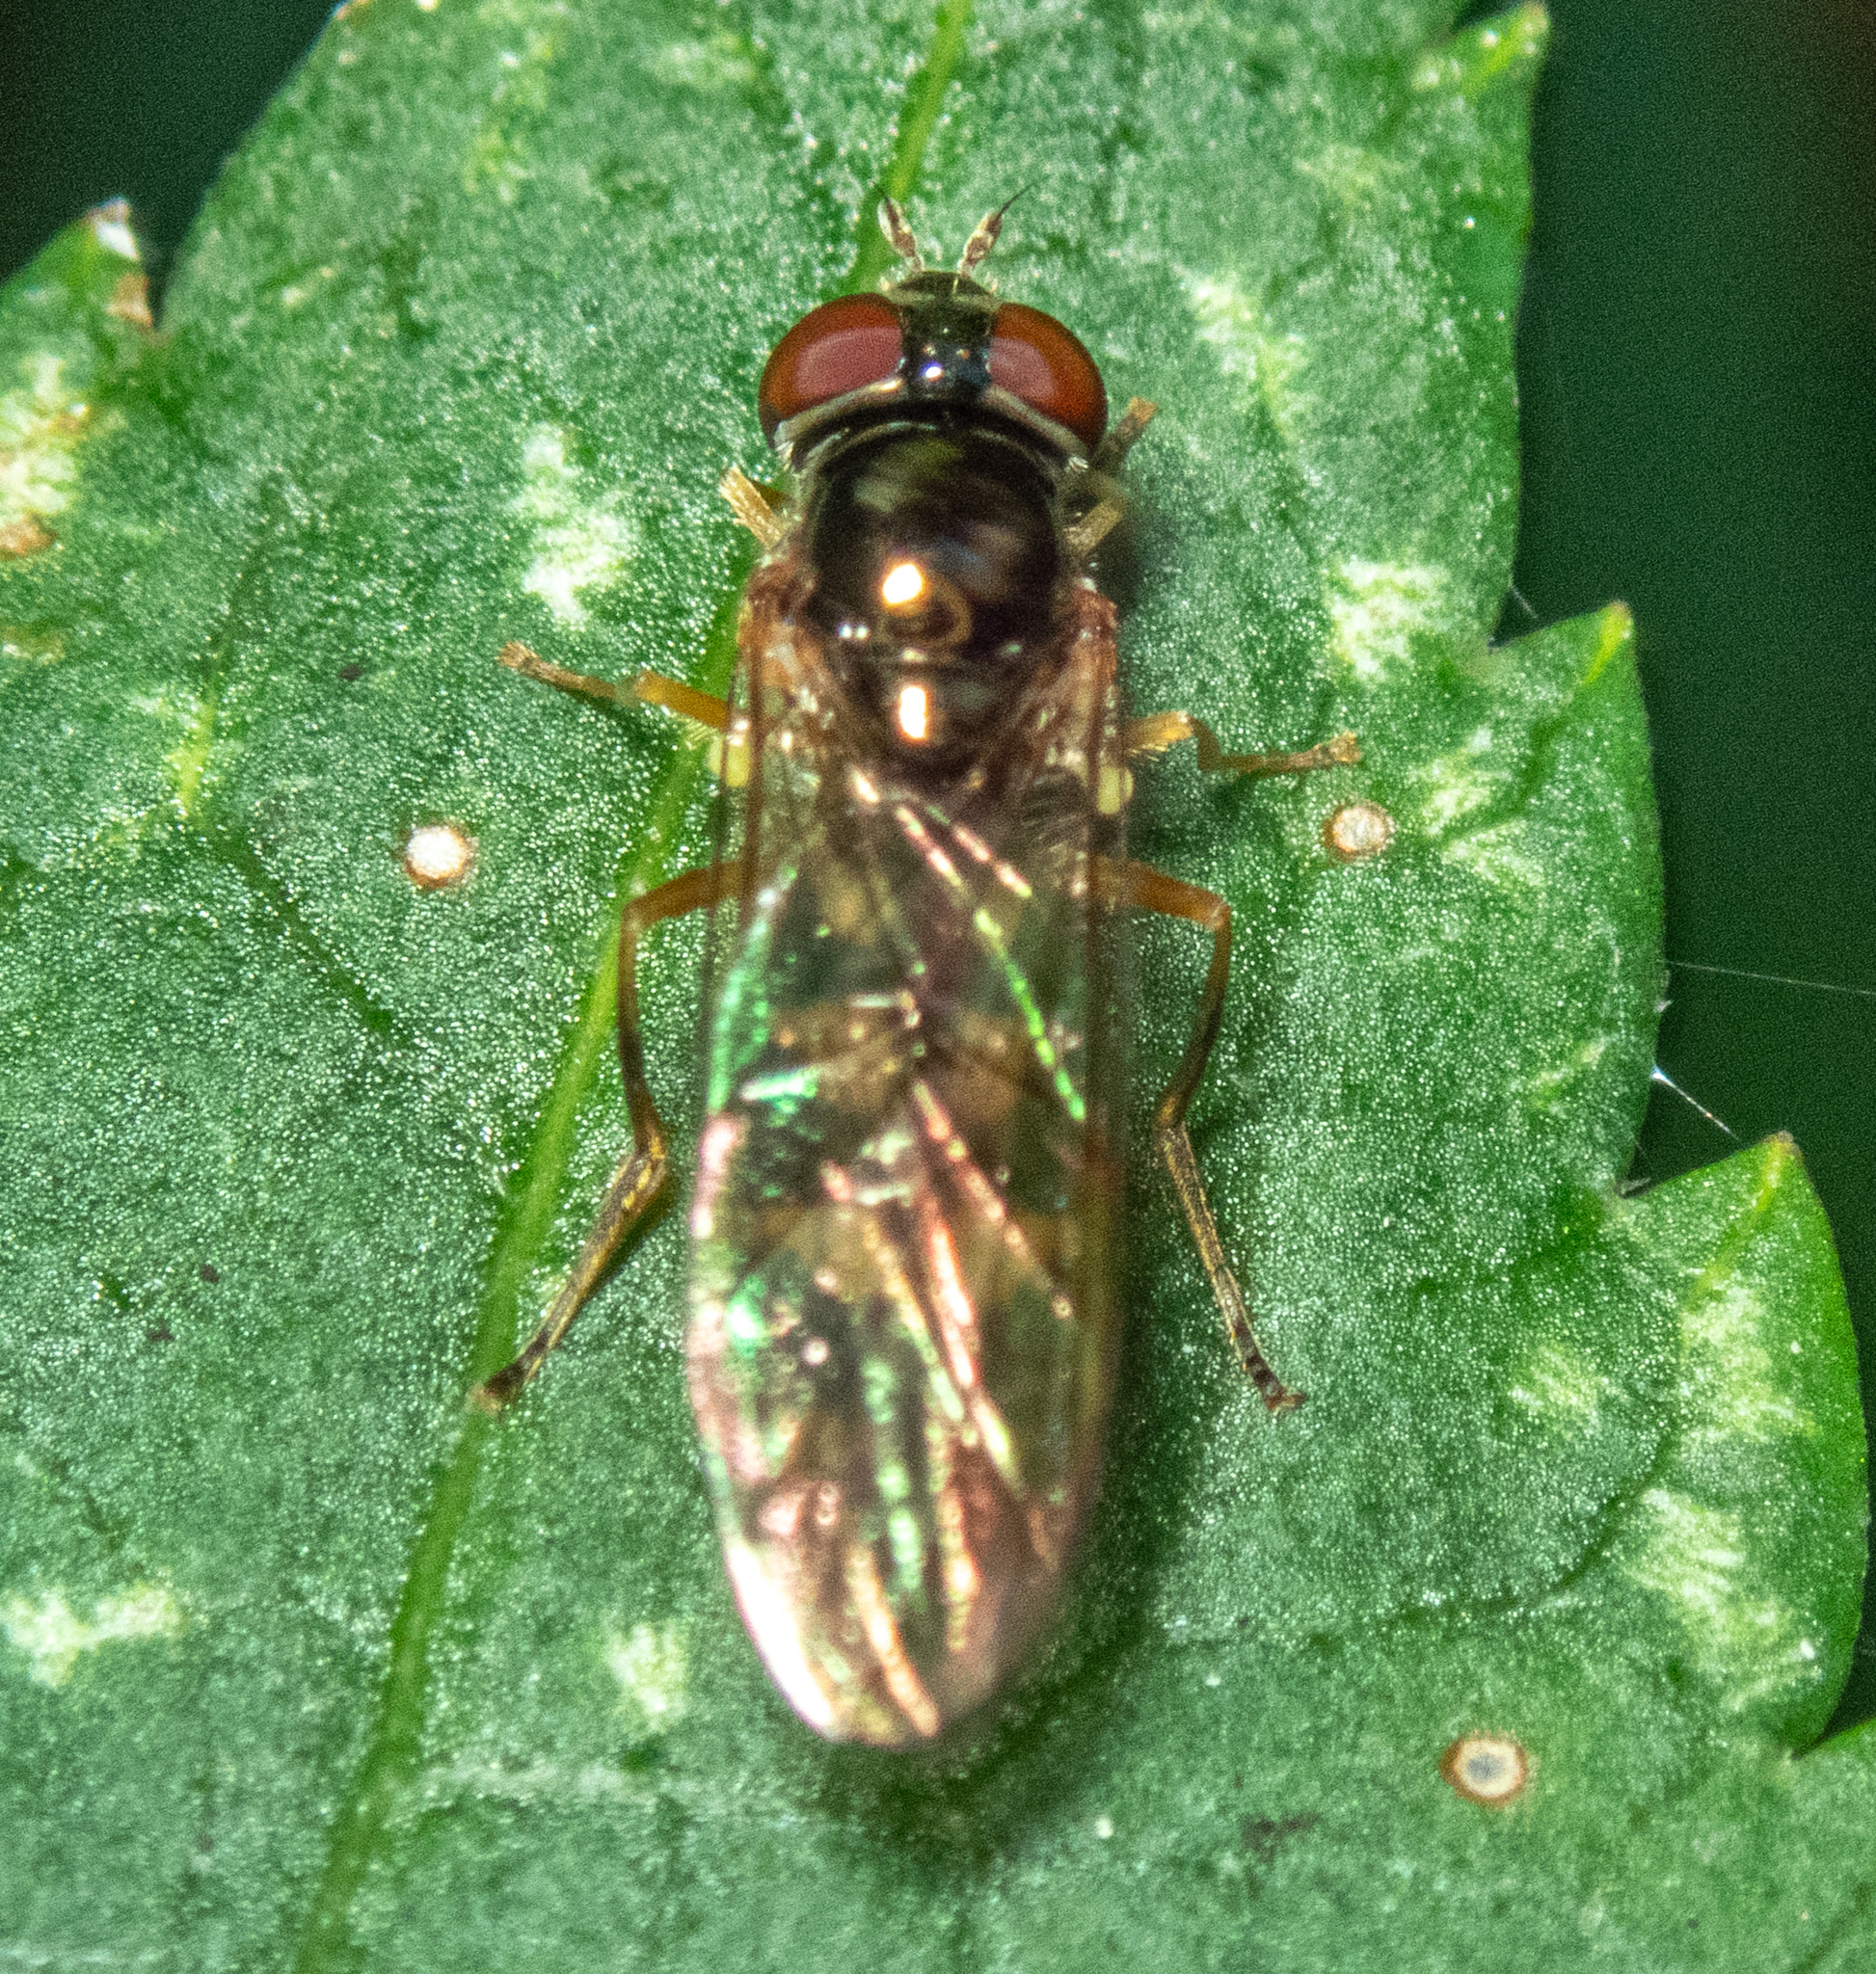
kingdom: Animalia
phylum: Arthropoda
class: Insecta
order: Diptera
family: Syrphidae
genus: Melanostoma
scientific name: Melanostoma scalare
